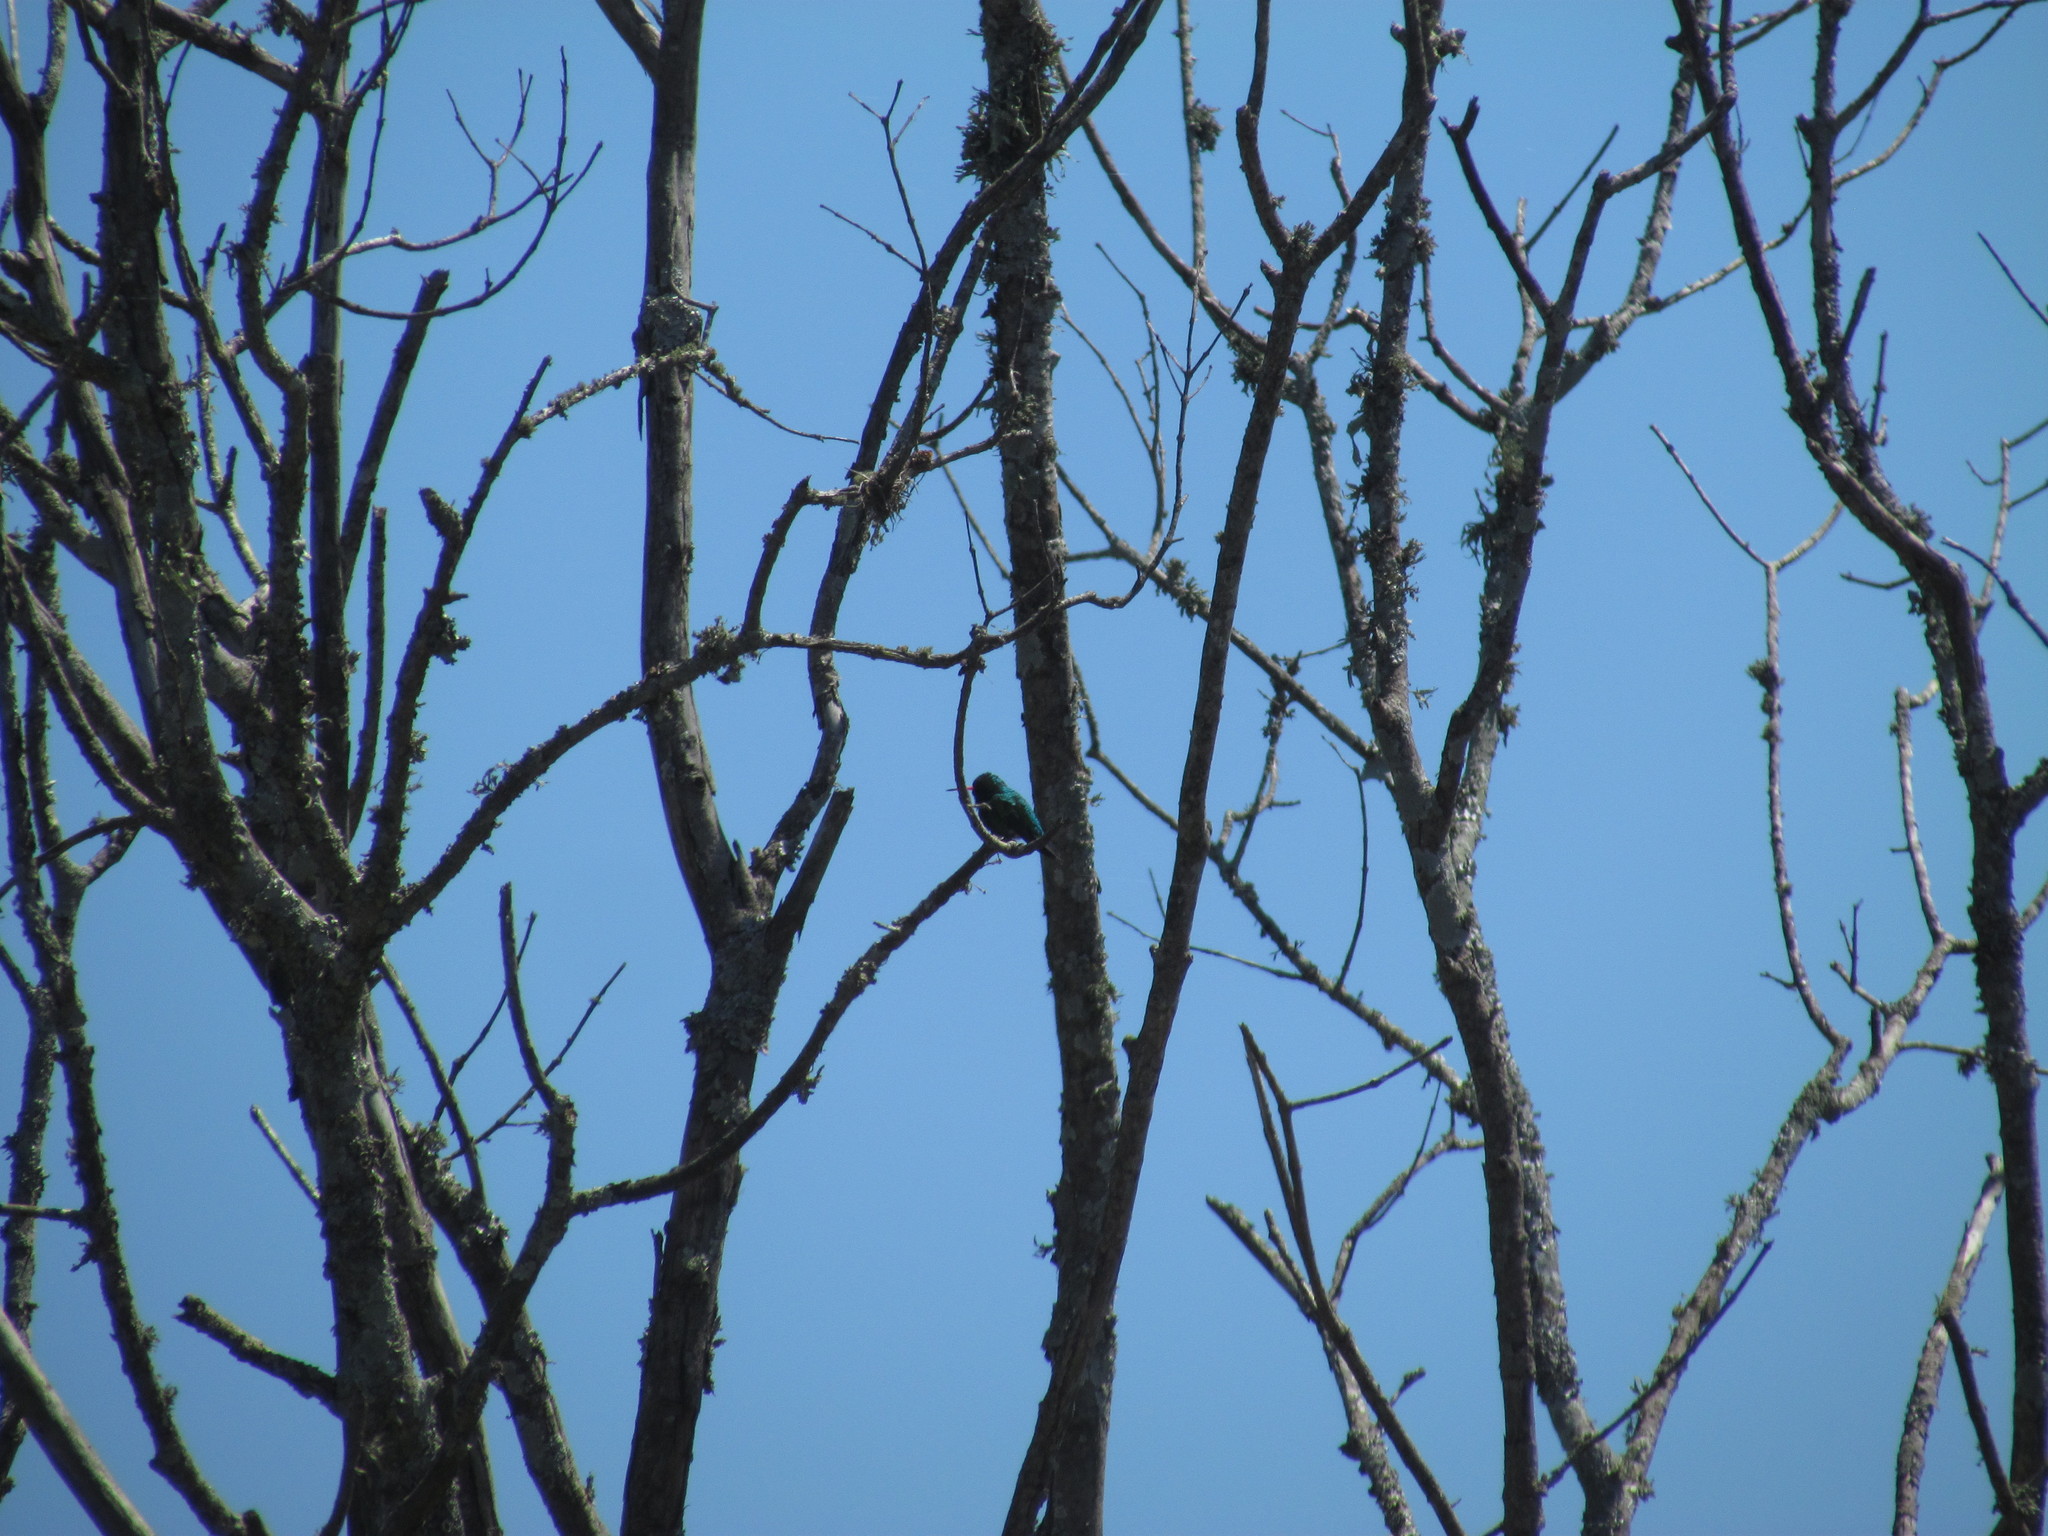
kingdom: Animalia
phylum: Chordata
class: Aves
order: Apodiformes
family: Trochilidae
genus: Chlorostilbon
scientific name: Chlorostilbon lucidus
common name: Glittering-bellied emerald
